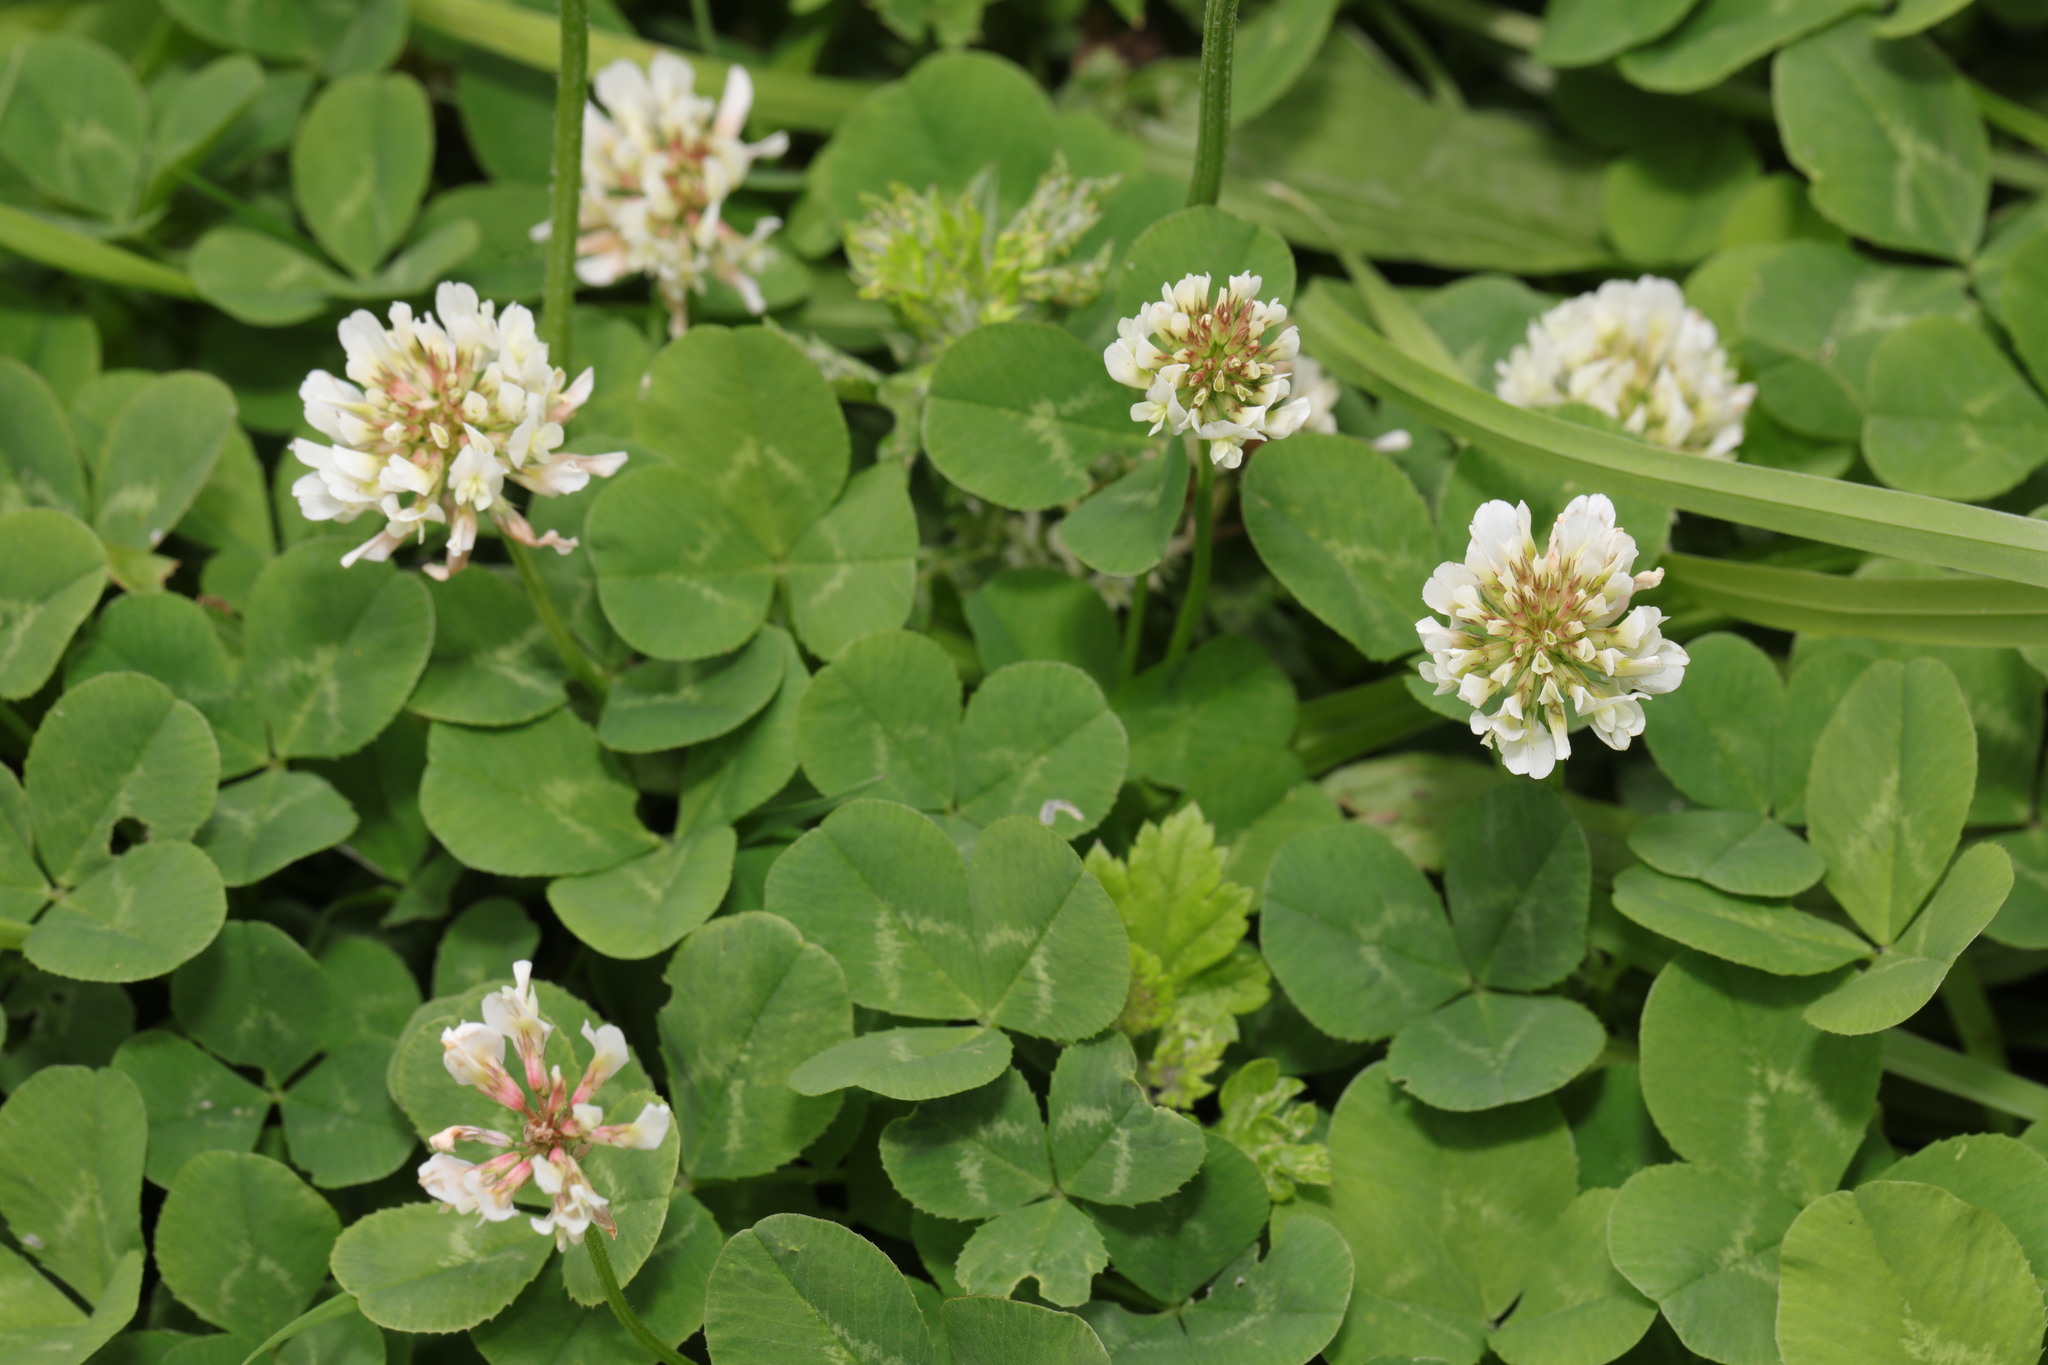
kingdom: Plantae
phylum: Tracheophyta
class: Magnoliopsida
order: Fabales
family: Fabaceae
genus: Trifolium
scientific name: Trifolium repens
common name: White clover
